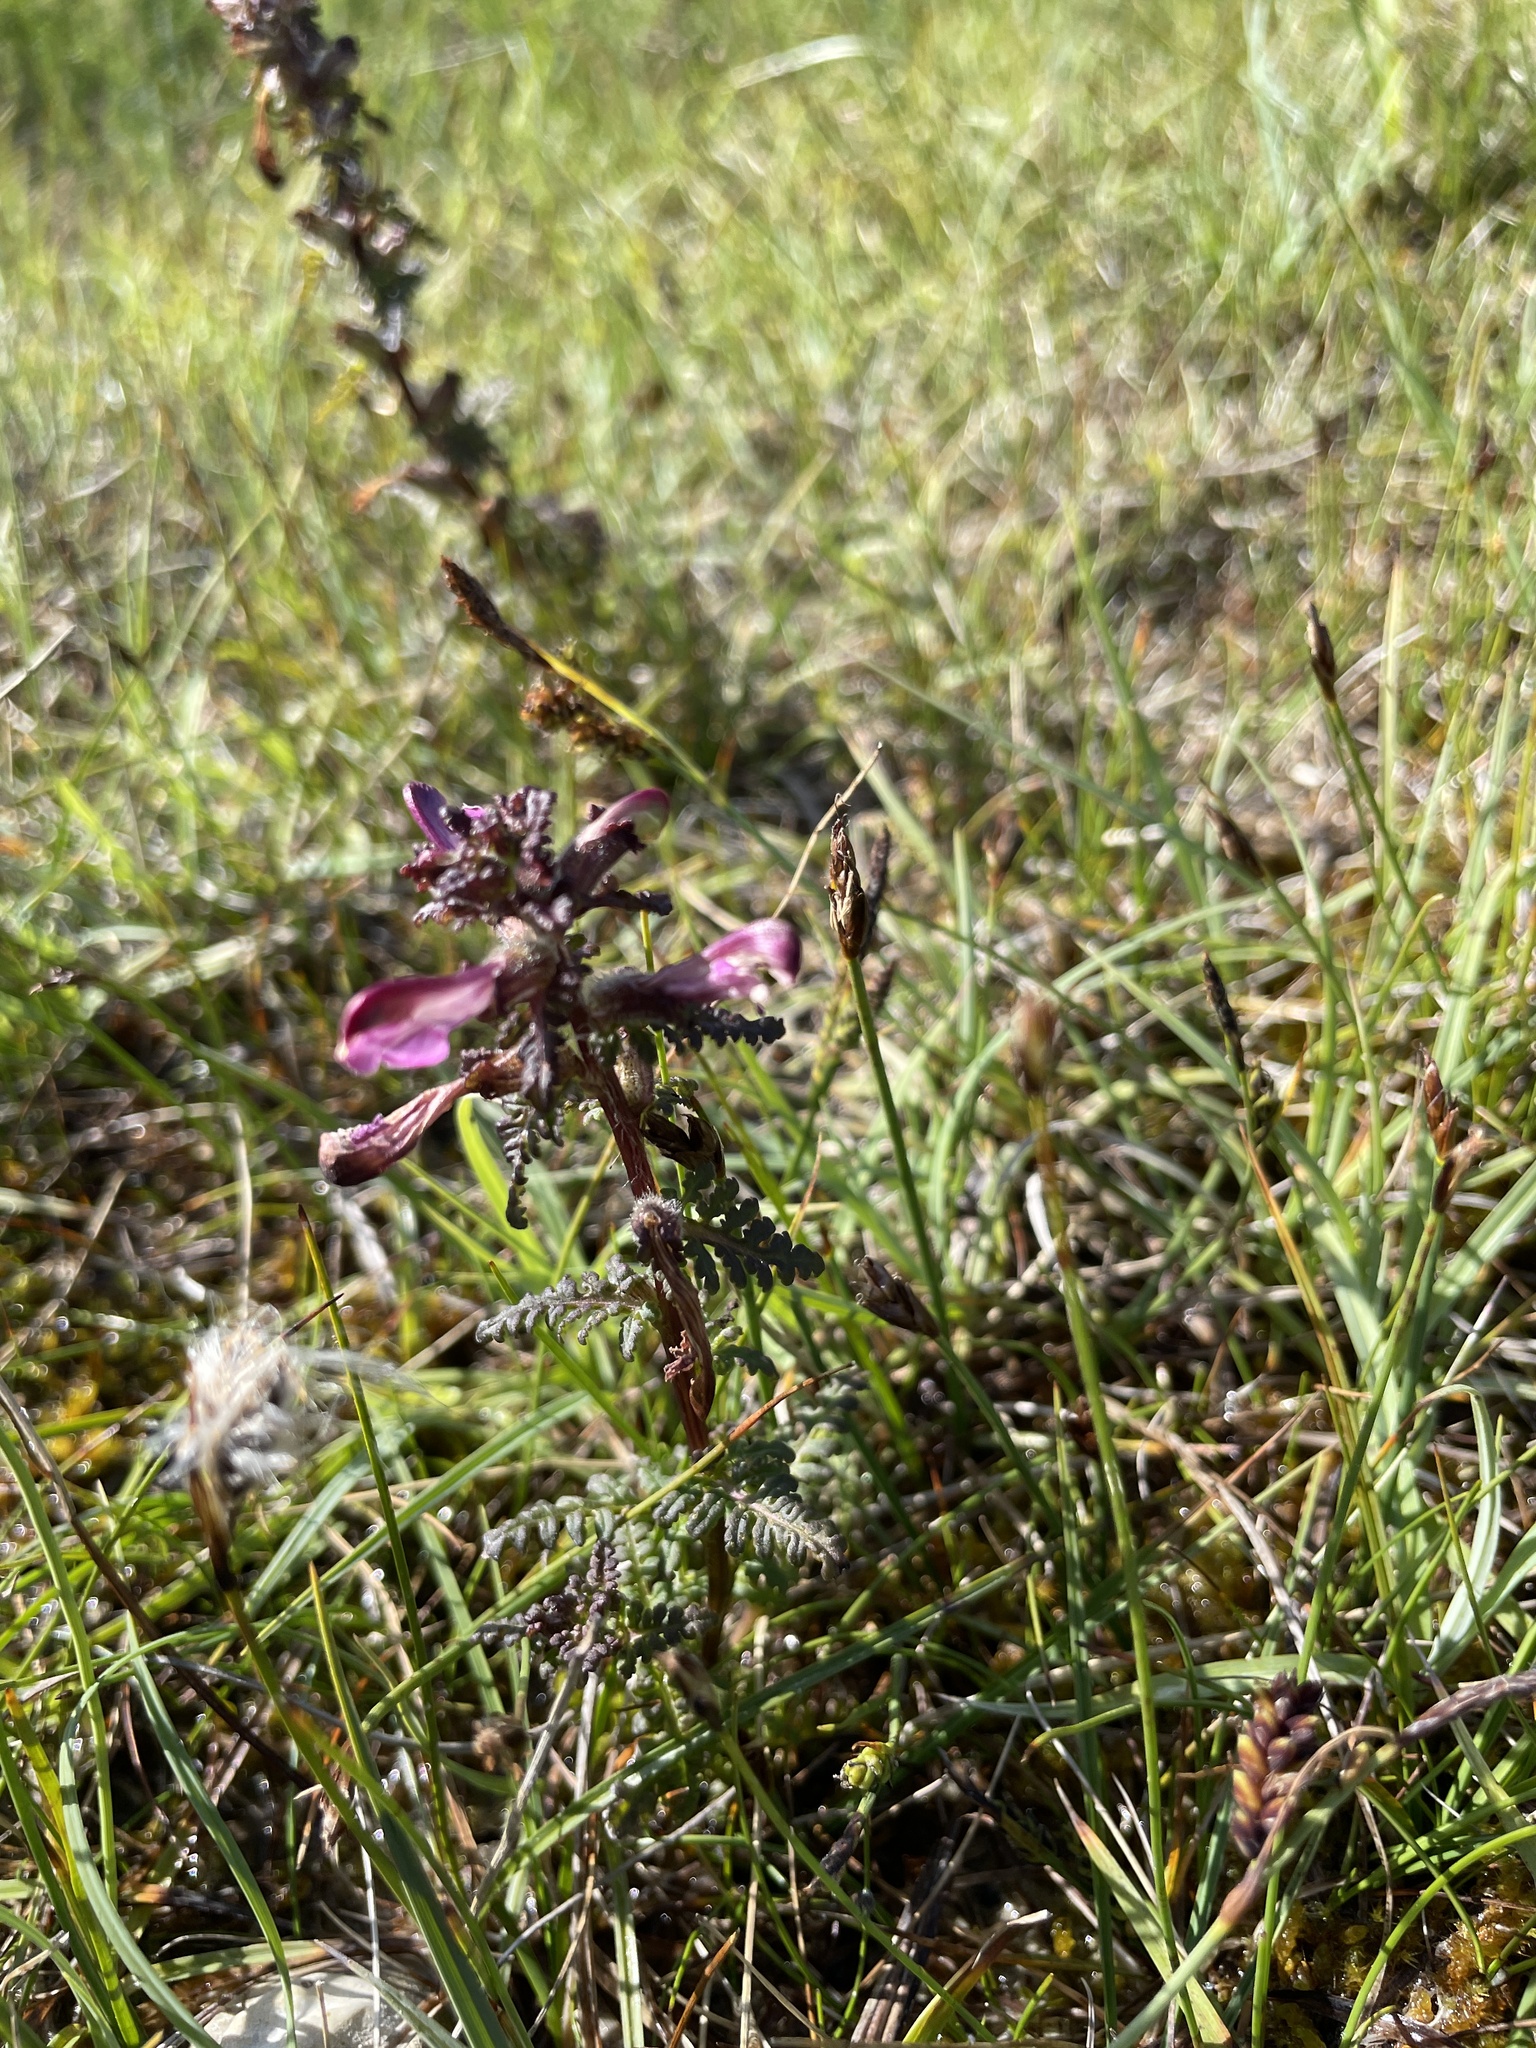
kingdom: Plantae
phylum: Tracheophyta
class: Magnoliopsida
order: Lamiales
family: Orobanchaceae
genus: Pedicularis
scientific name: Pedicularis palustris
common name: Marsh lousewort
